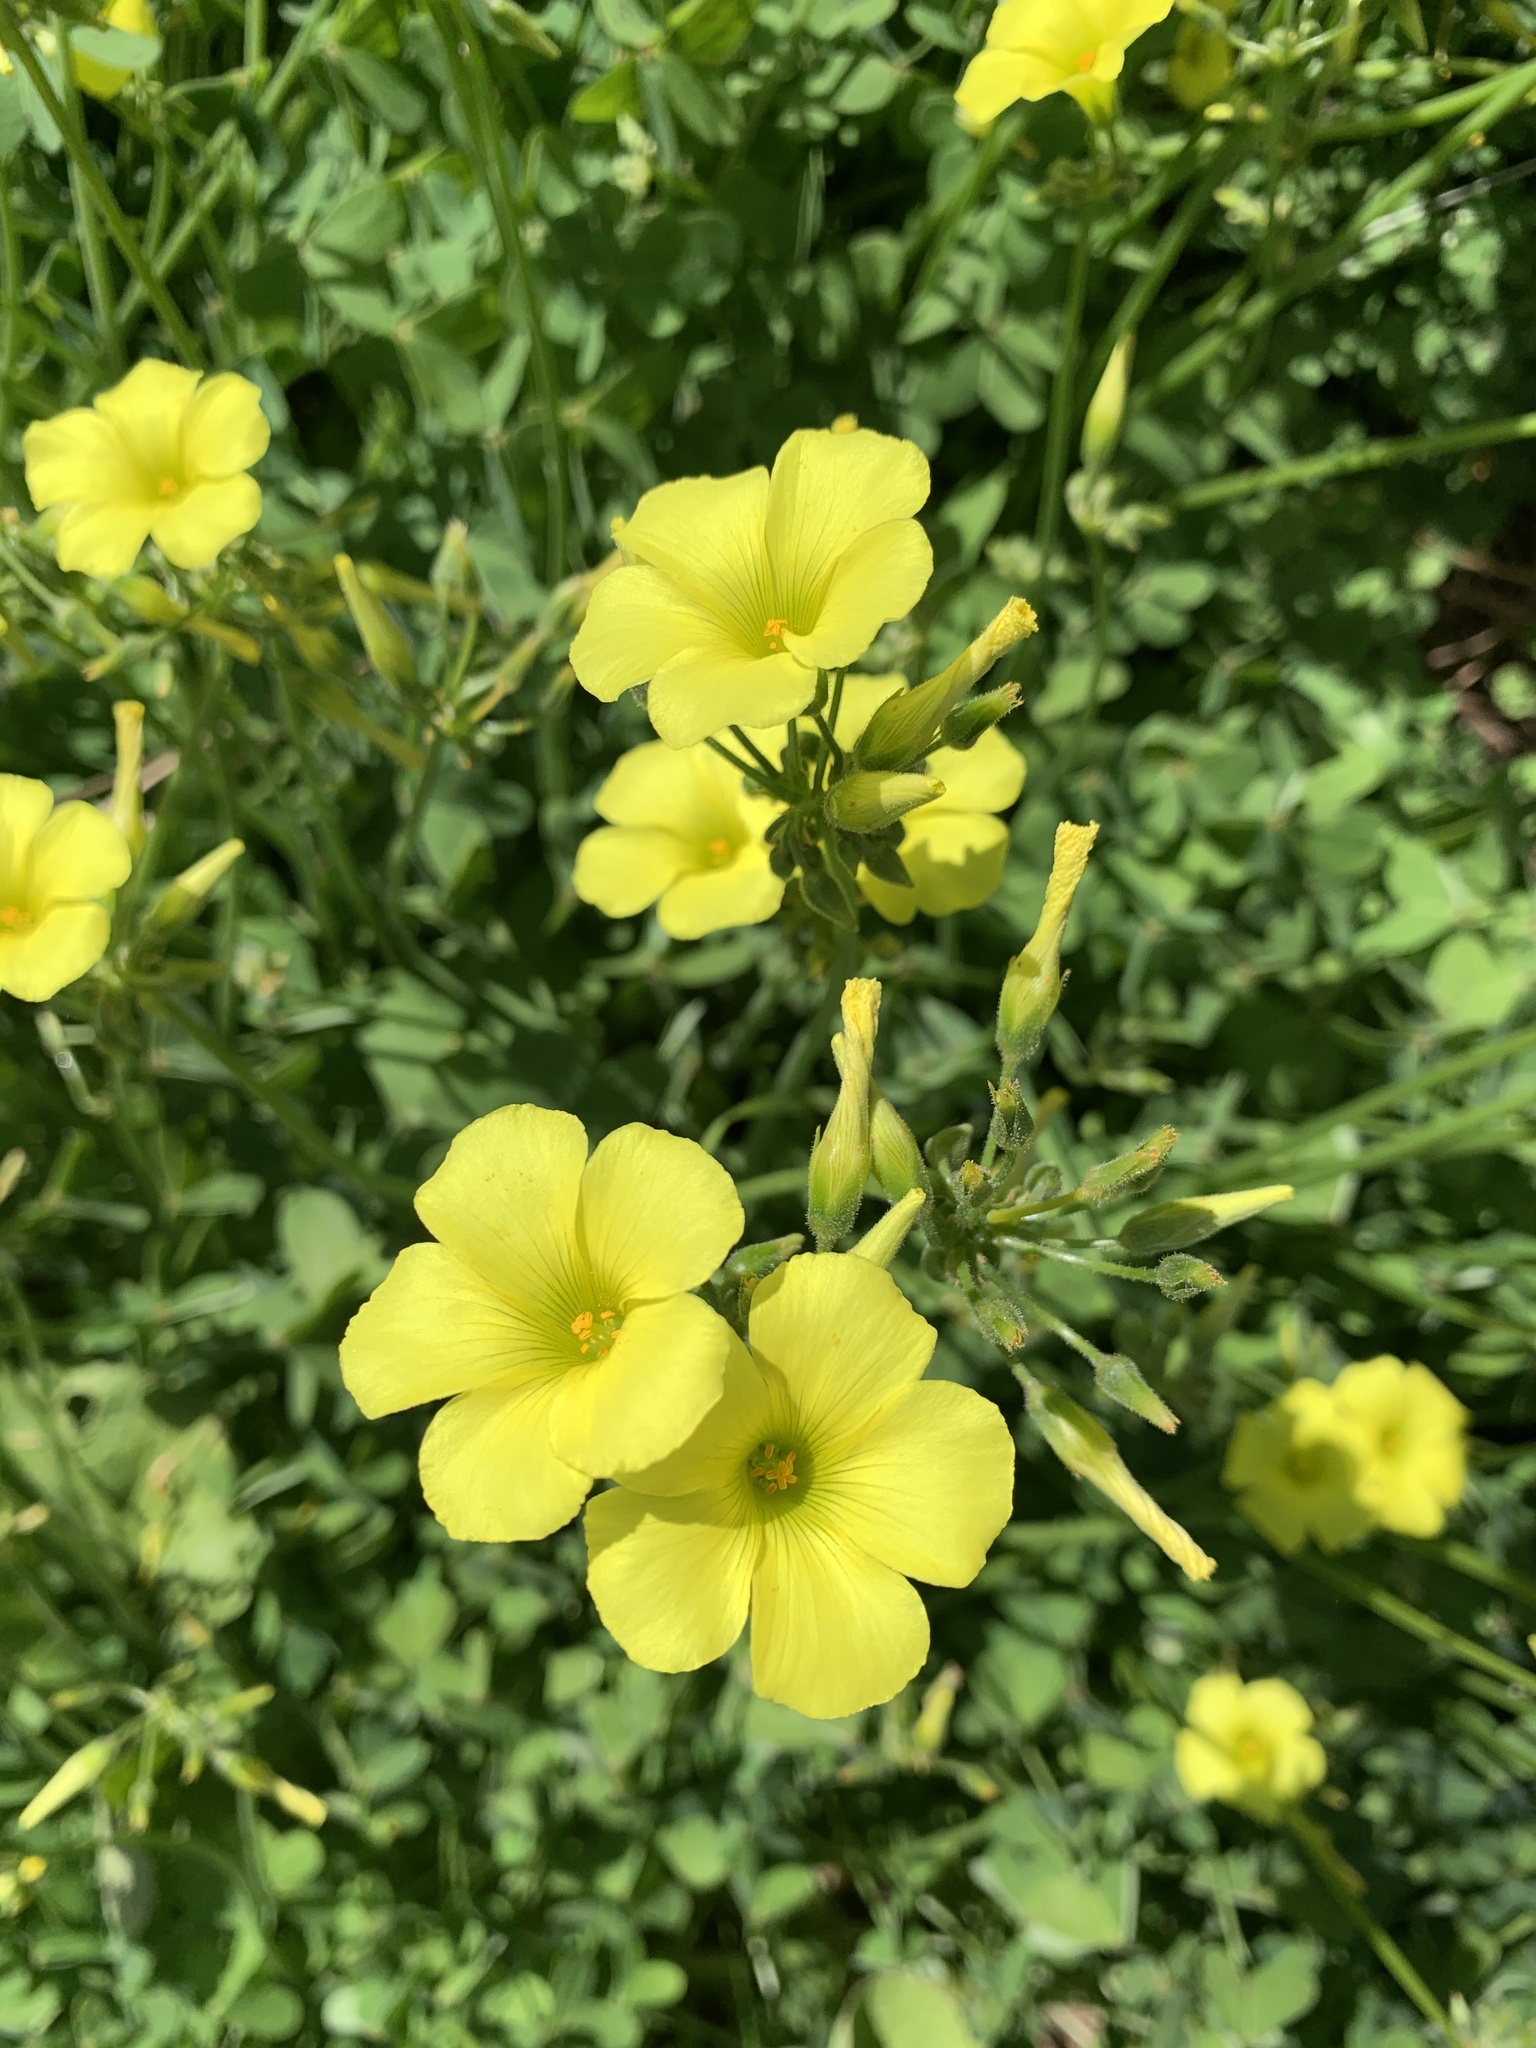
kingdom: Plantae
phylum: Tracheophyta
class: Magnoliopsida
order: Oxalidales
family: Oxalidaceae
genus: Oxalis
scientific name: Oxalis pes-caprae
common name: Bermuda-buttercup
